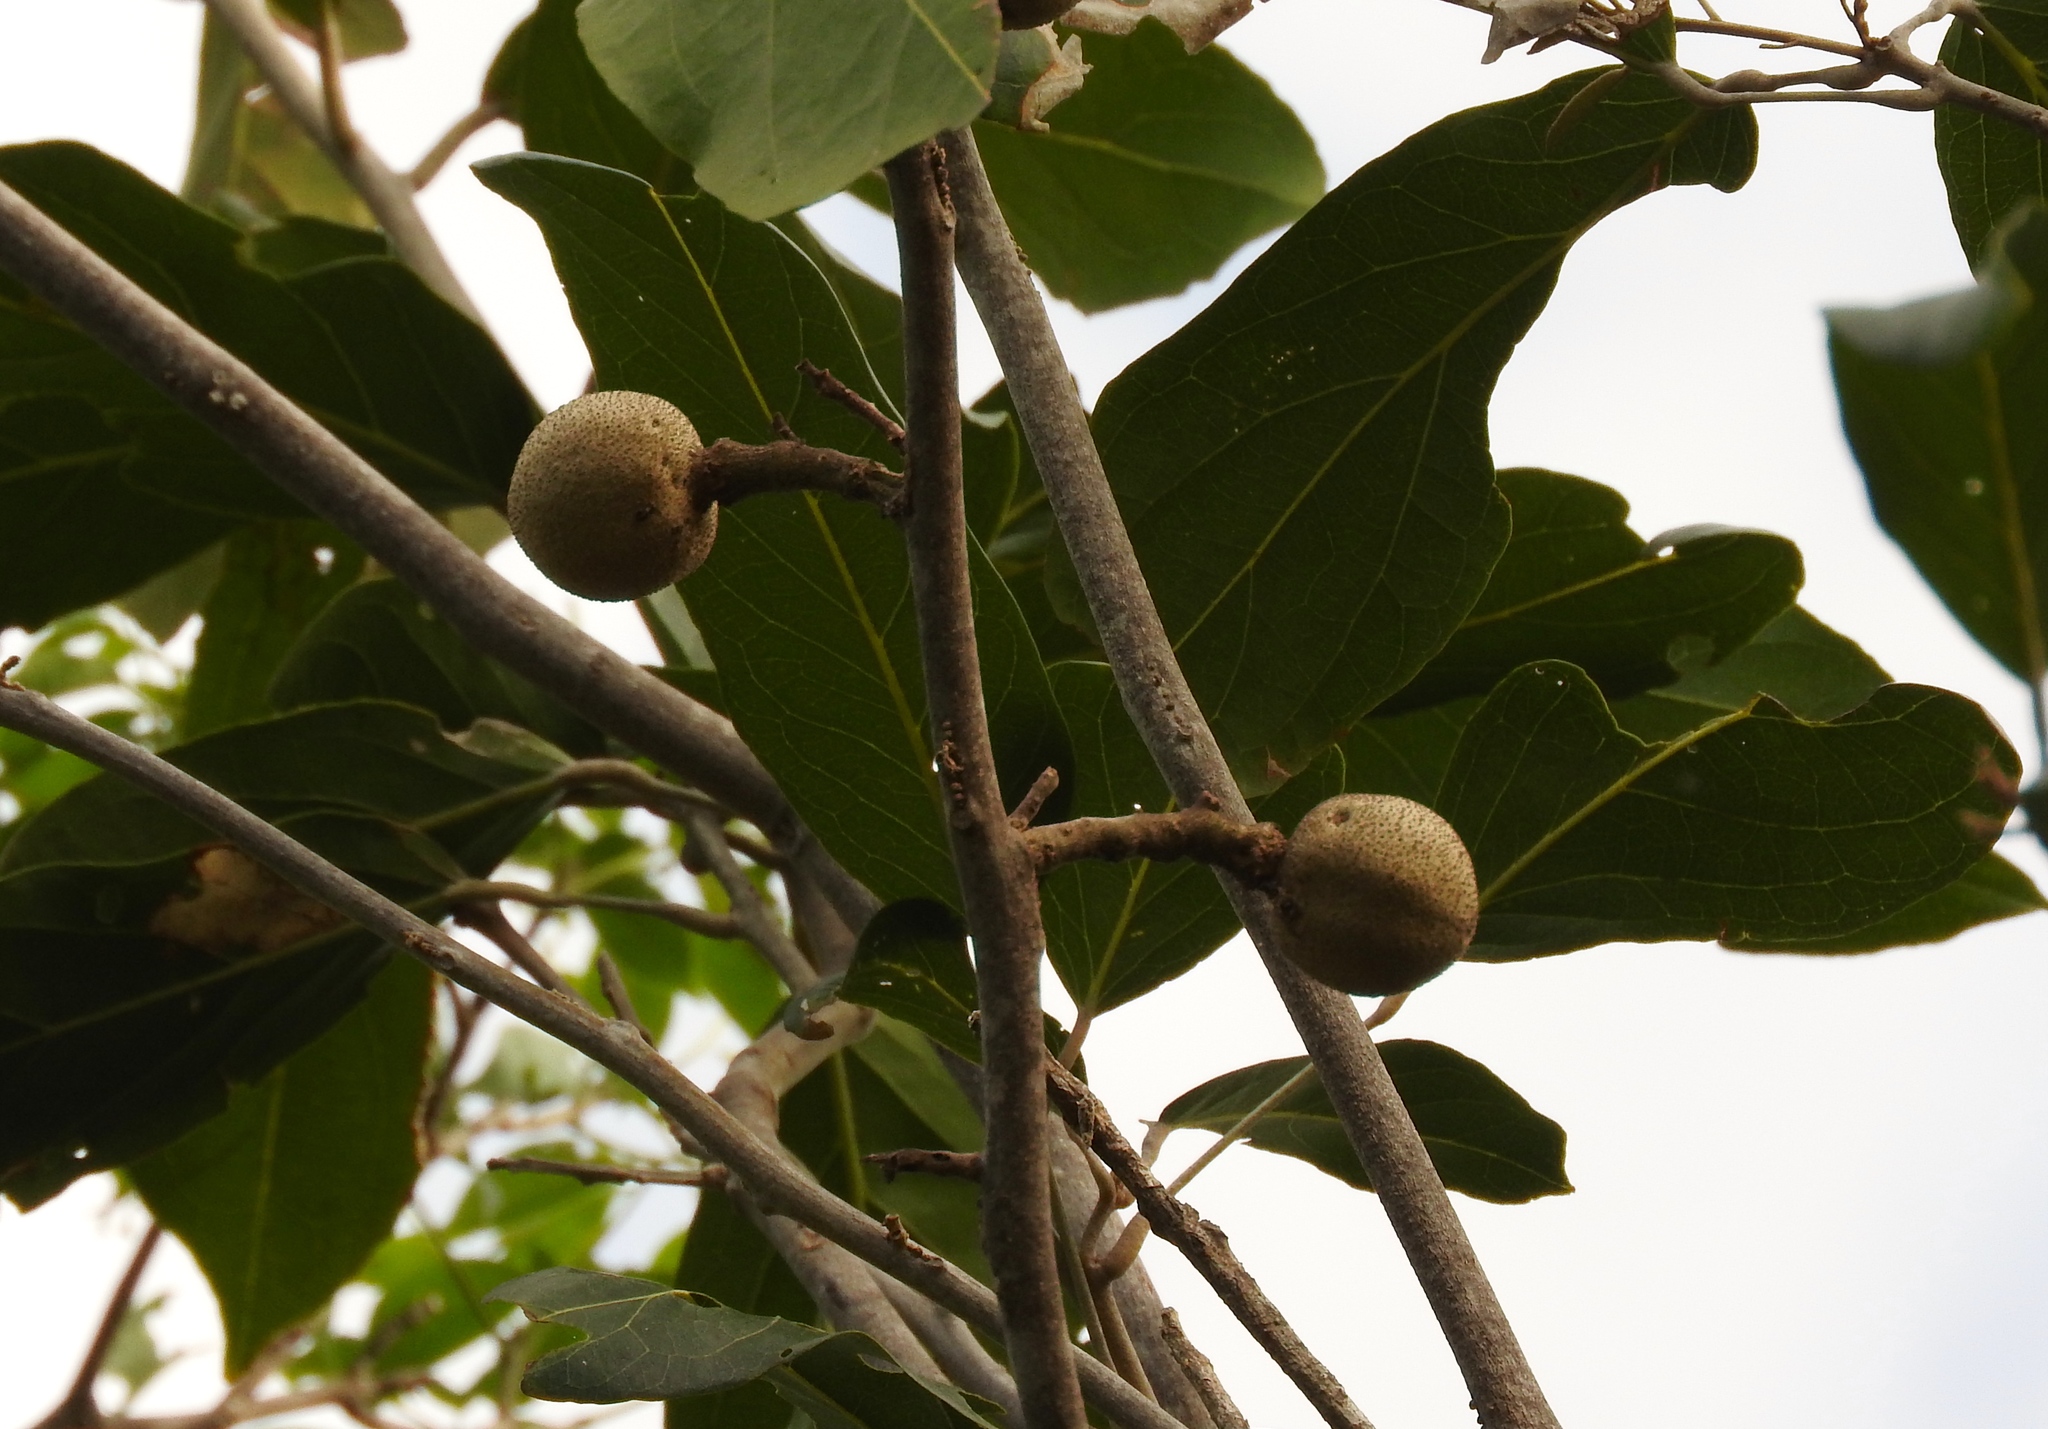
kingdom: Plantae
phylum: Tracheophyta
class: Magnoliopsida
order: Brassicales
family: Capparaceae
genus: Morisonia
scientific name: Morisonia americana
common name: Wild mesple
